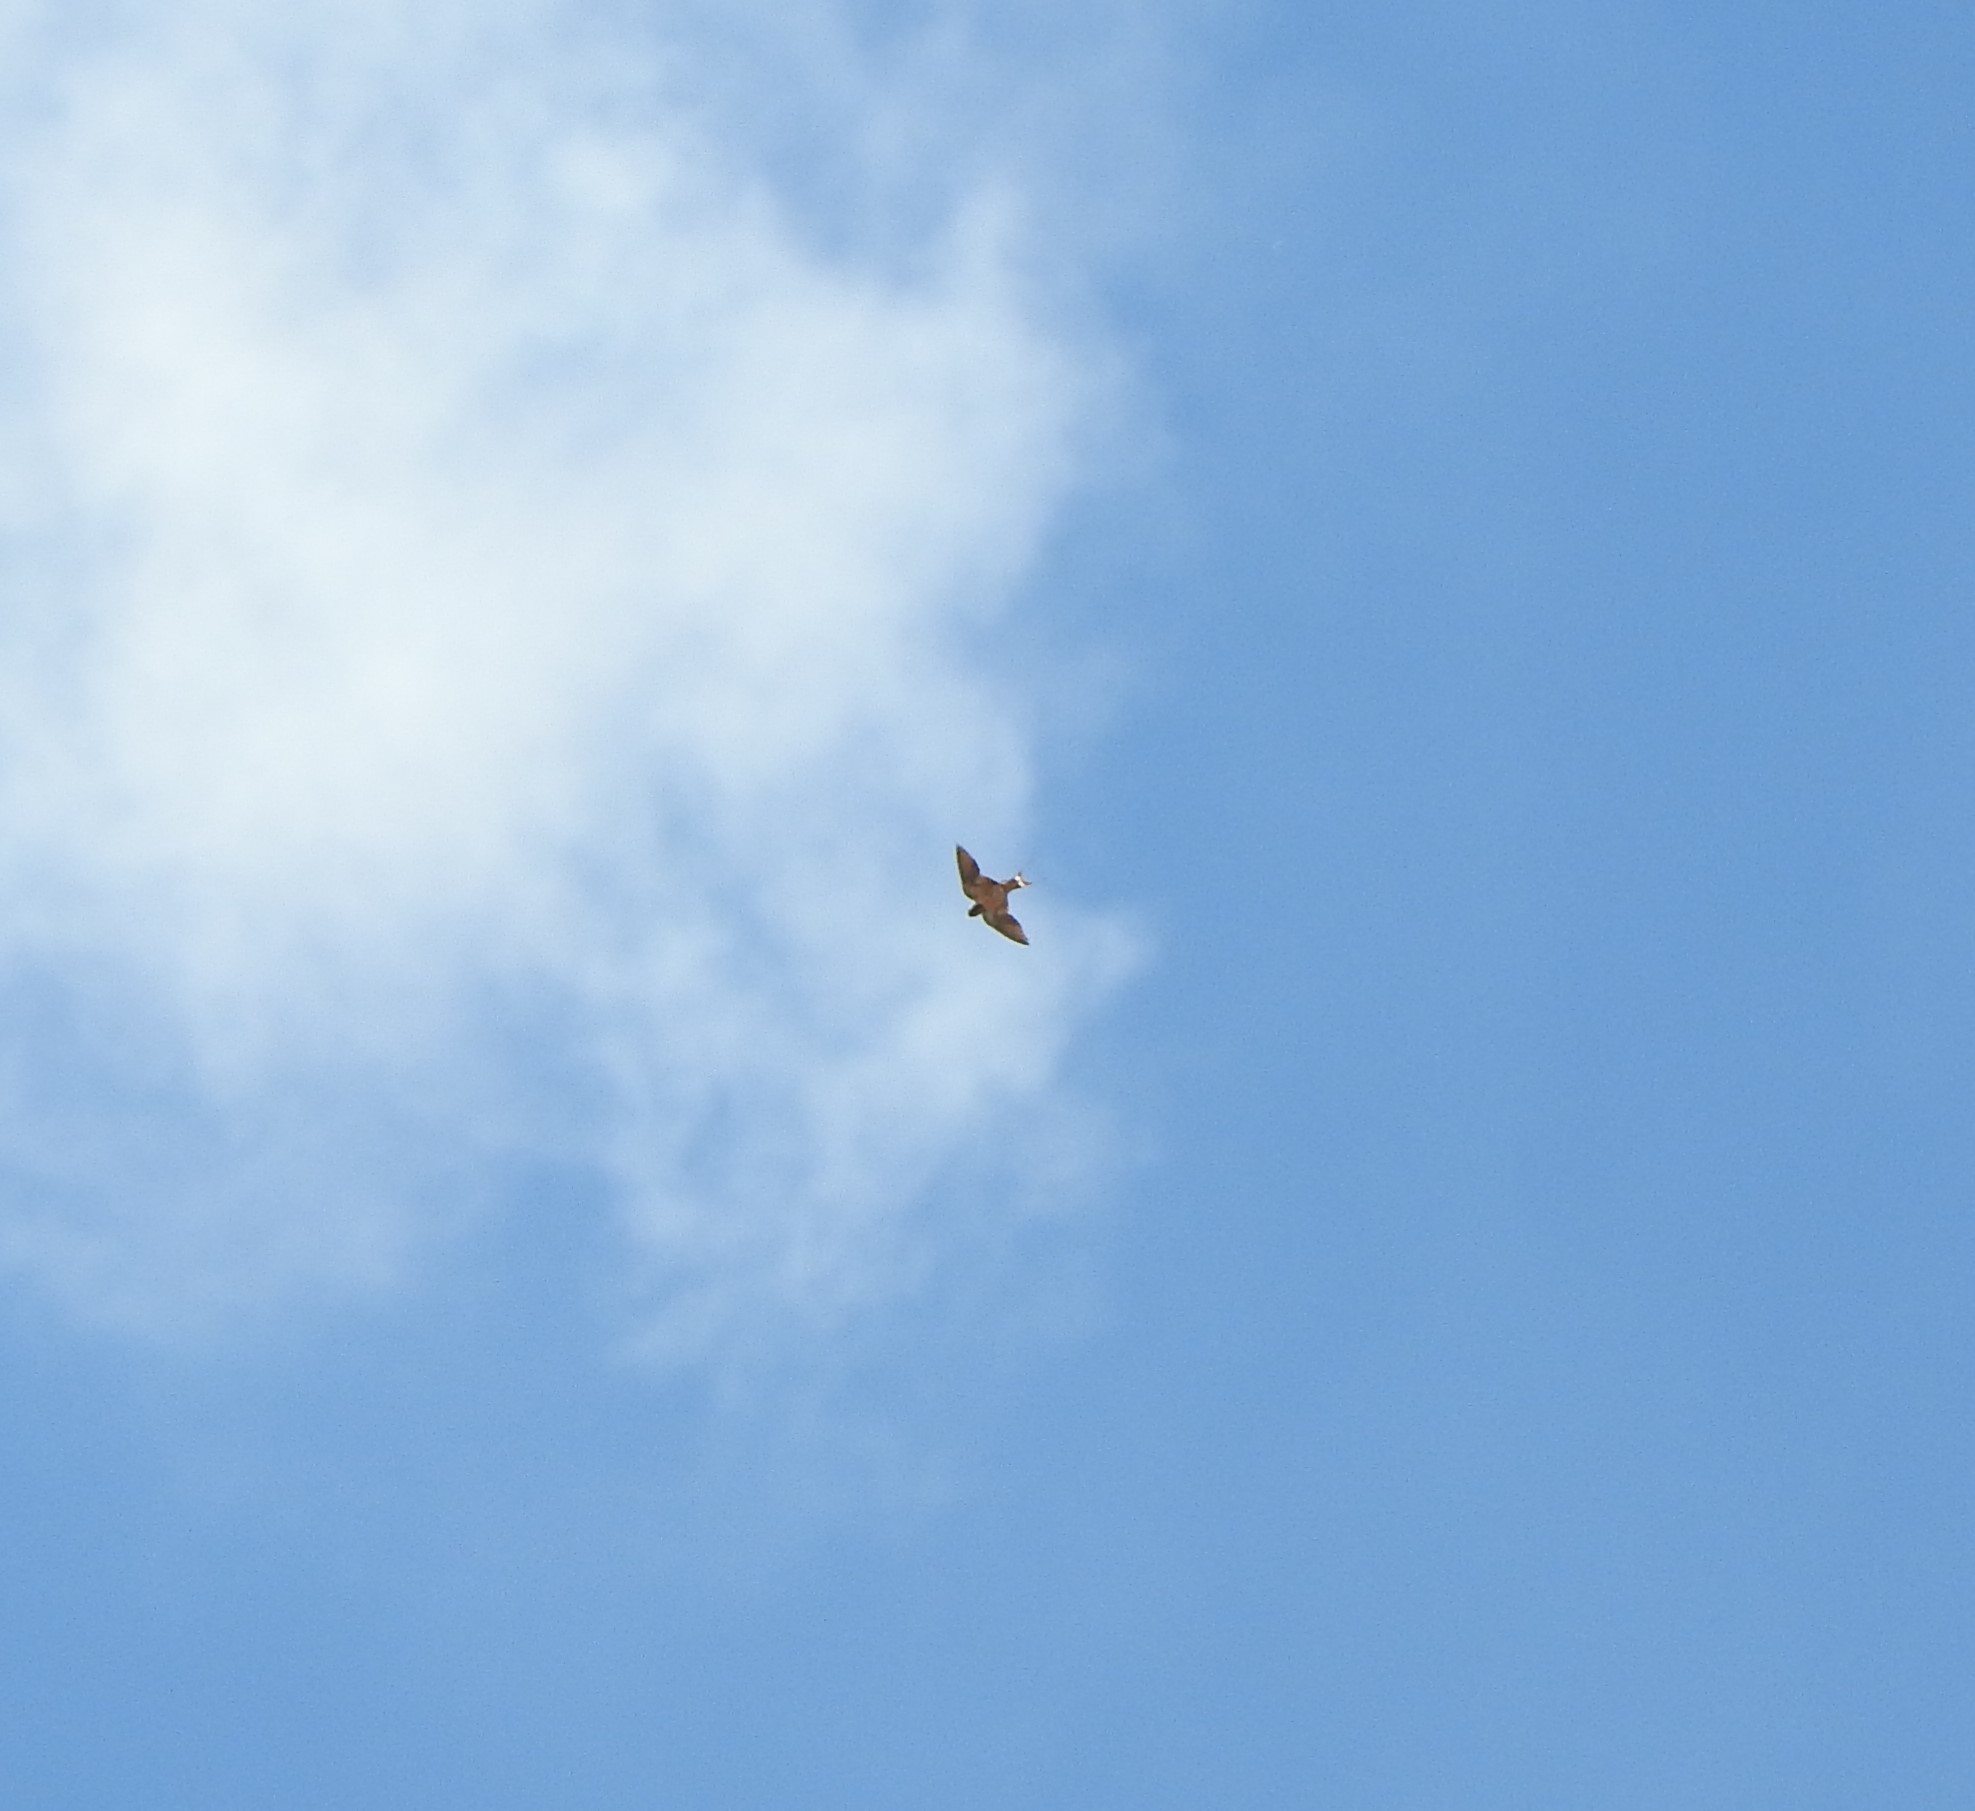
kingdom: Animalia
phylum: Chordata
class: Aves
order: Passeriformes
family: Hirundinidae
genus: Hirundo
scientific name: Hirundo rustica
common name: Barn swallow
